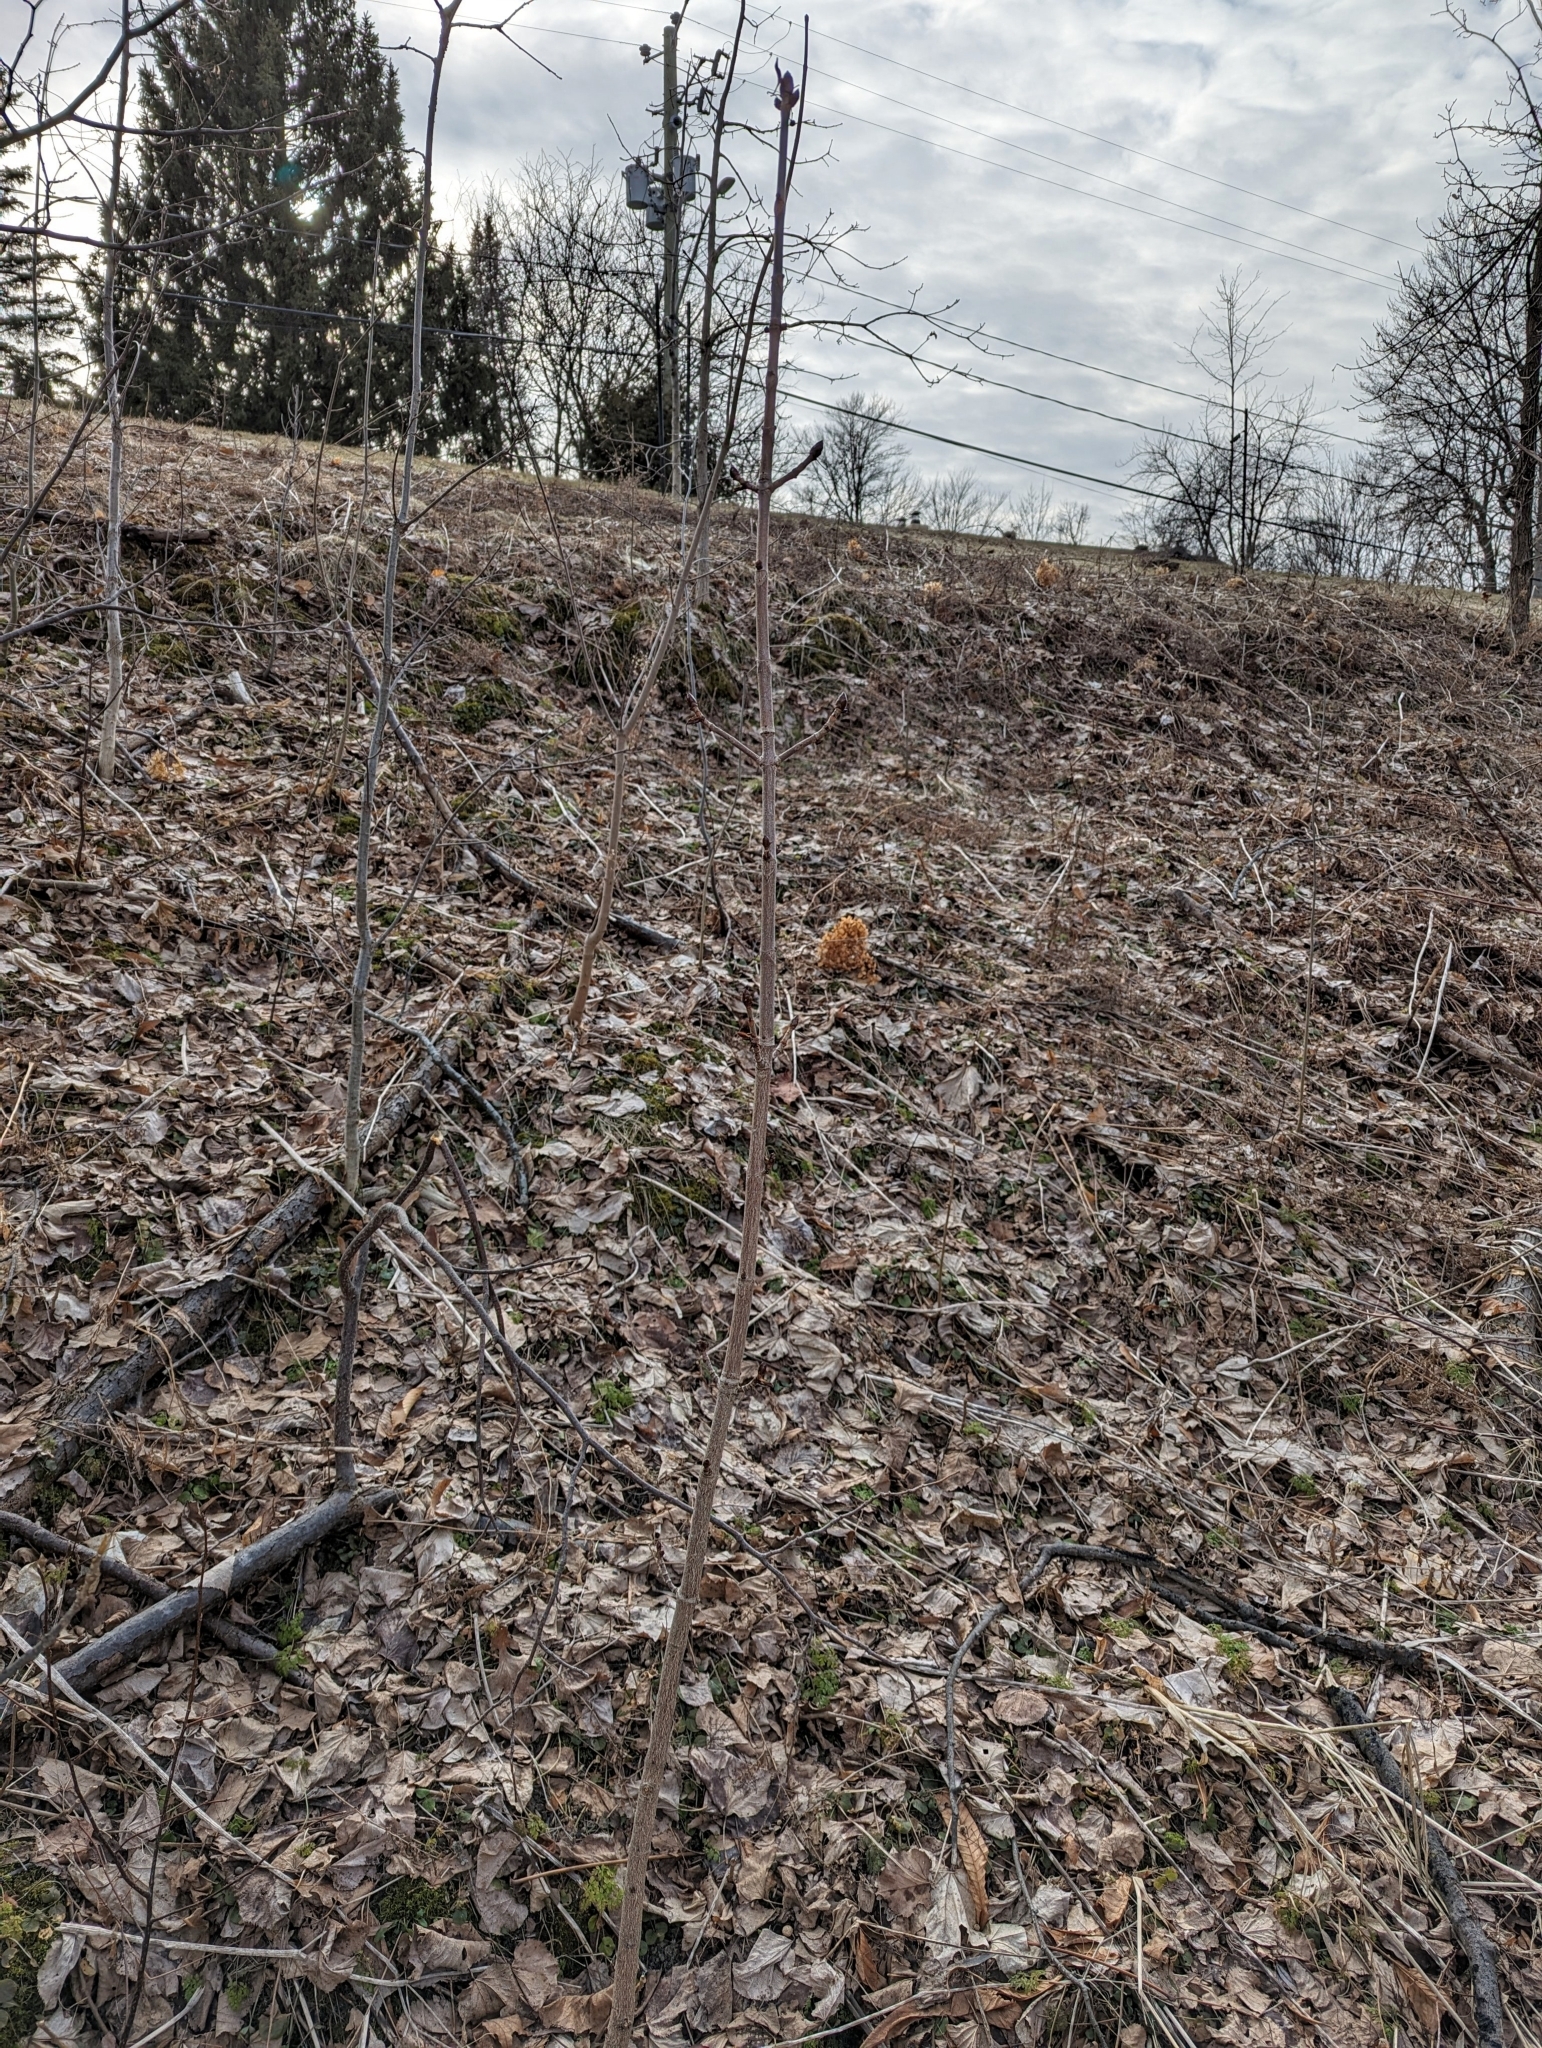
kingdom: Plantae
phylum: Tracheophyta
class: Magnoliopsida
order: Sapindales
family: Sapindaceae
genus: Aesculus
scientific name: Aesculus hippocastanum
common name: Horse-chestnut
